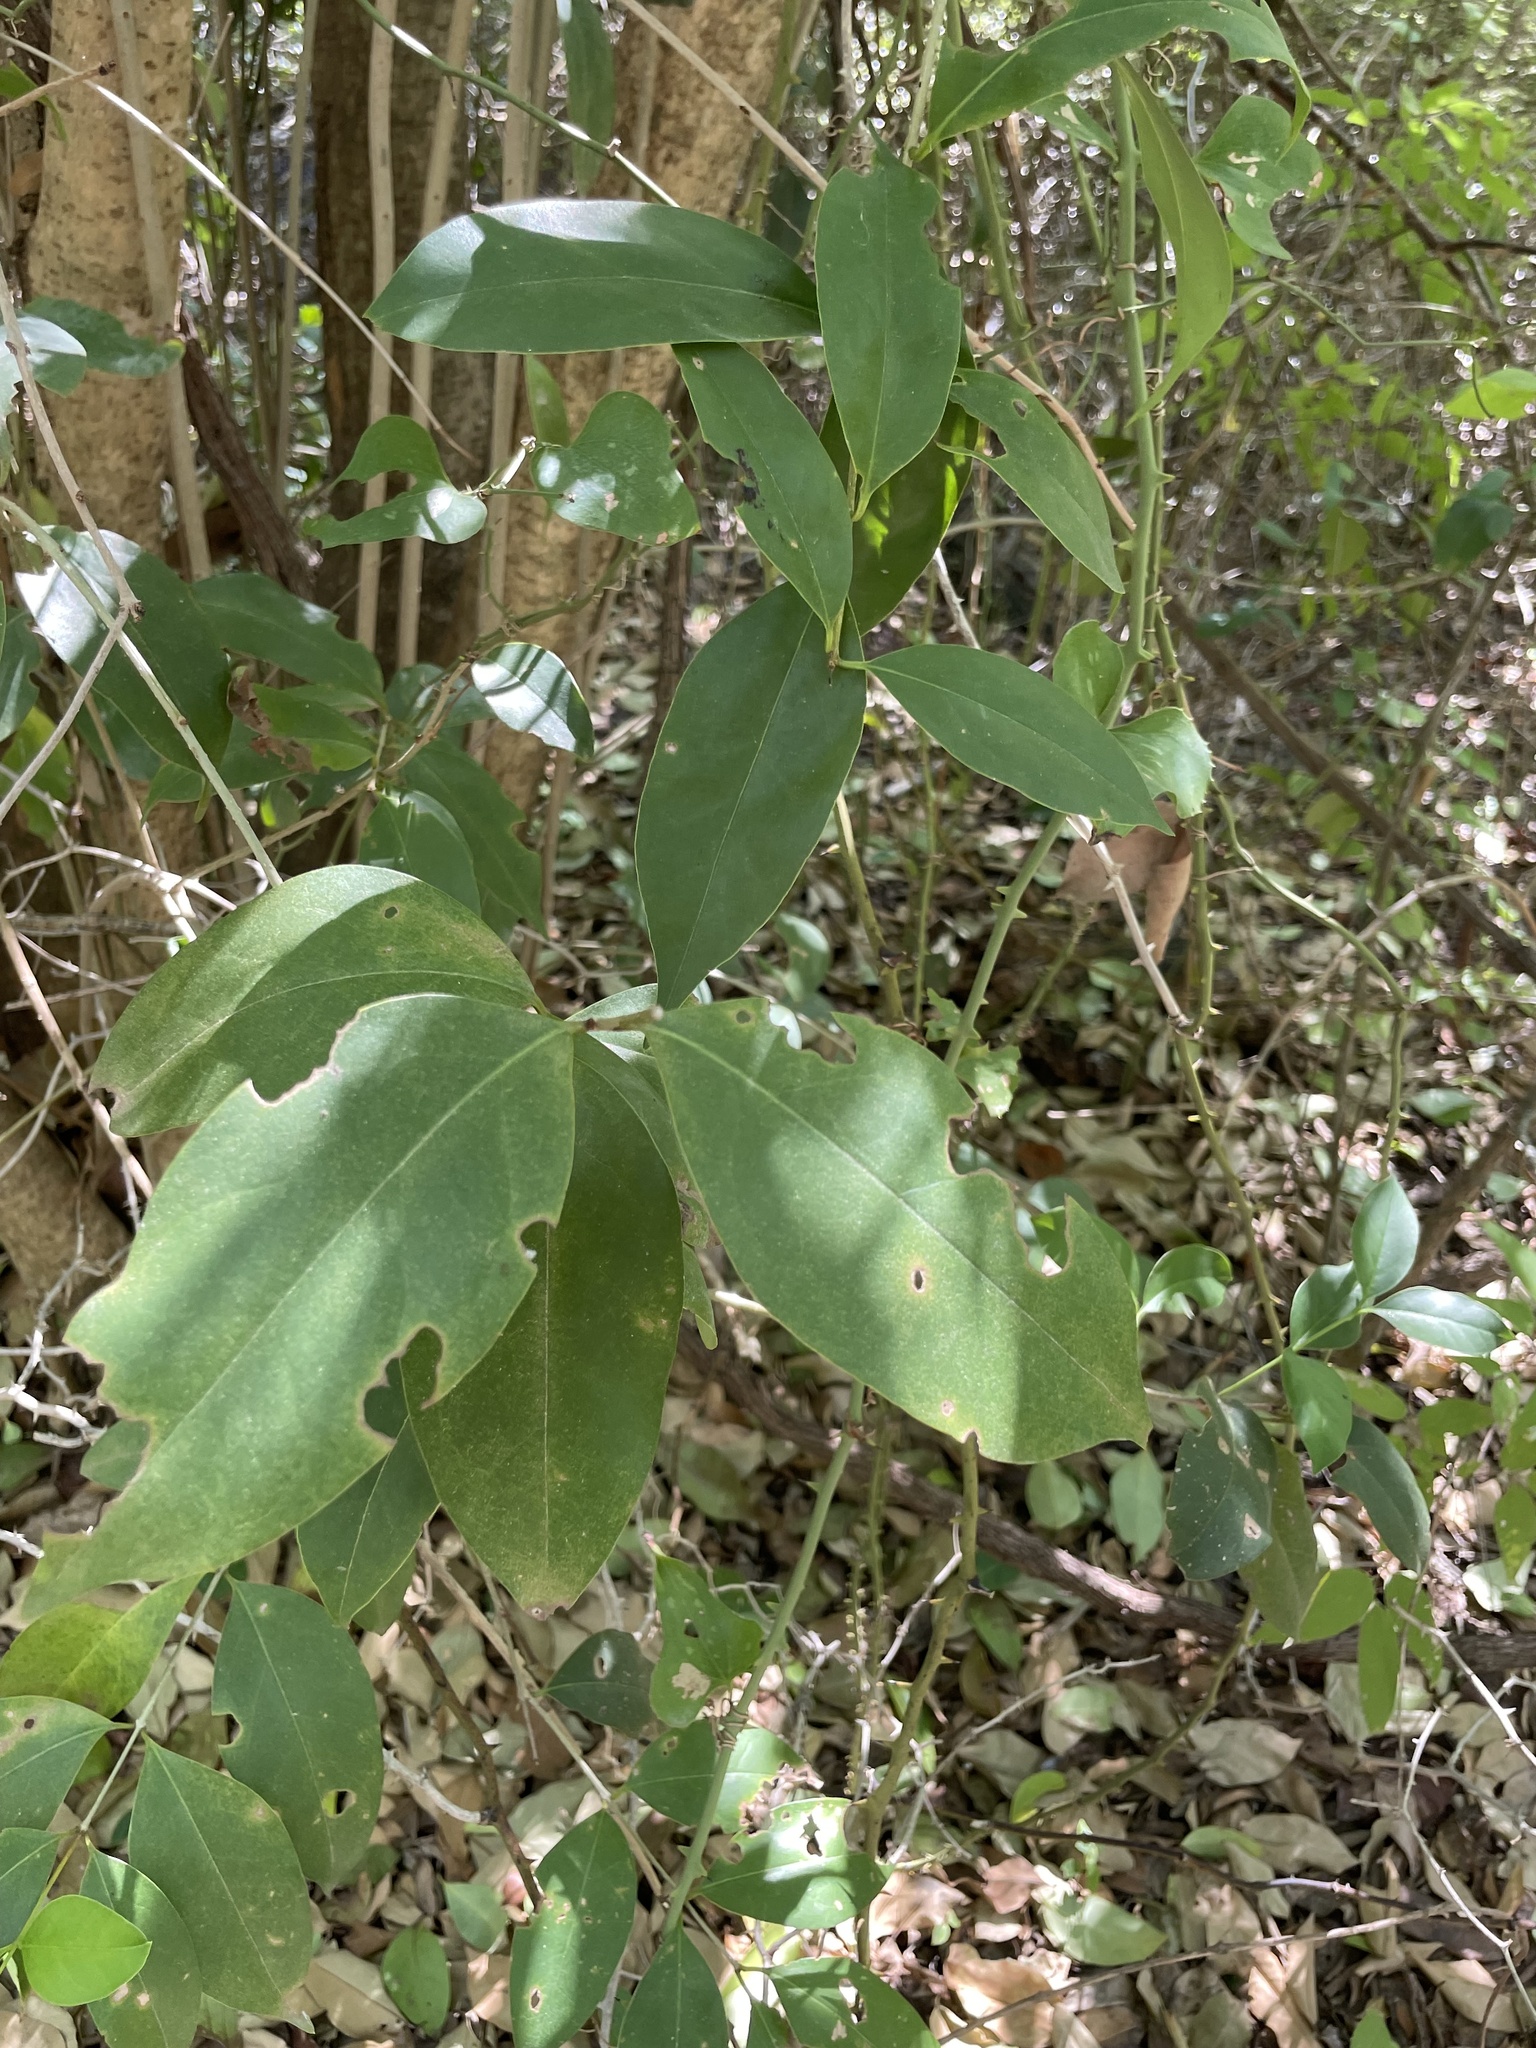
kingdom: Plantae
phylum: Tracheophyta
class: Magnoliopsida
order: Lamiales
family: Oleaceae
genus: Ligustrum
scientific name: Ligustrum lucidum
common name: Glossy privet
